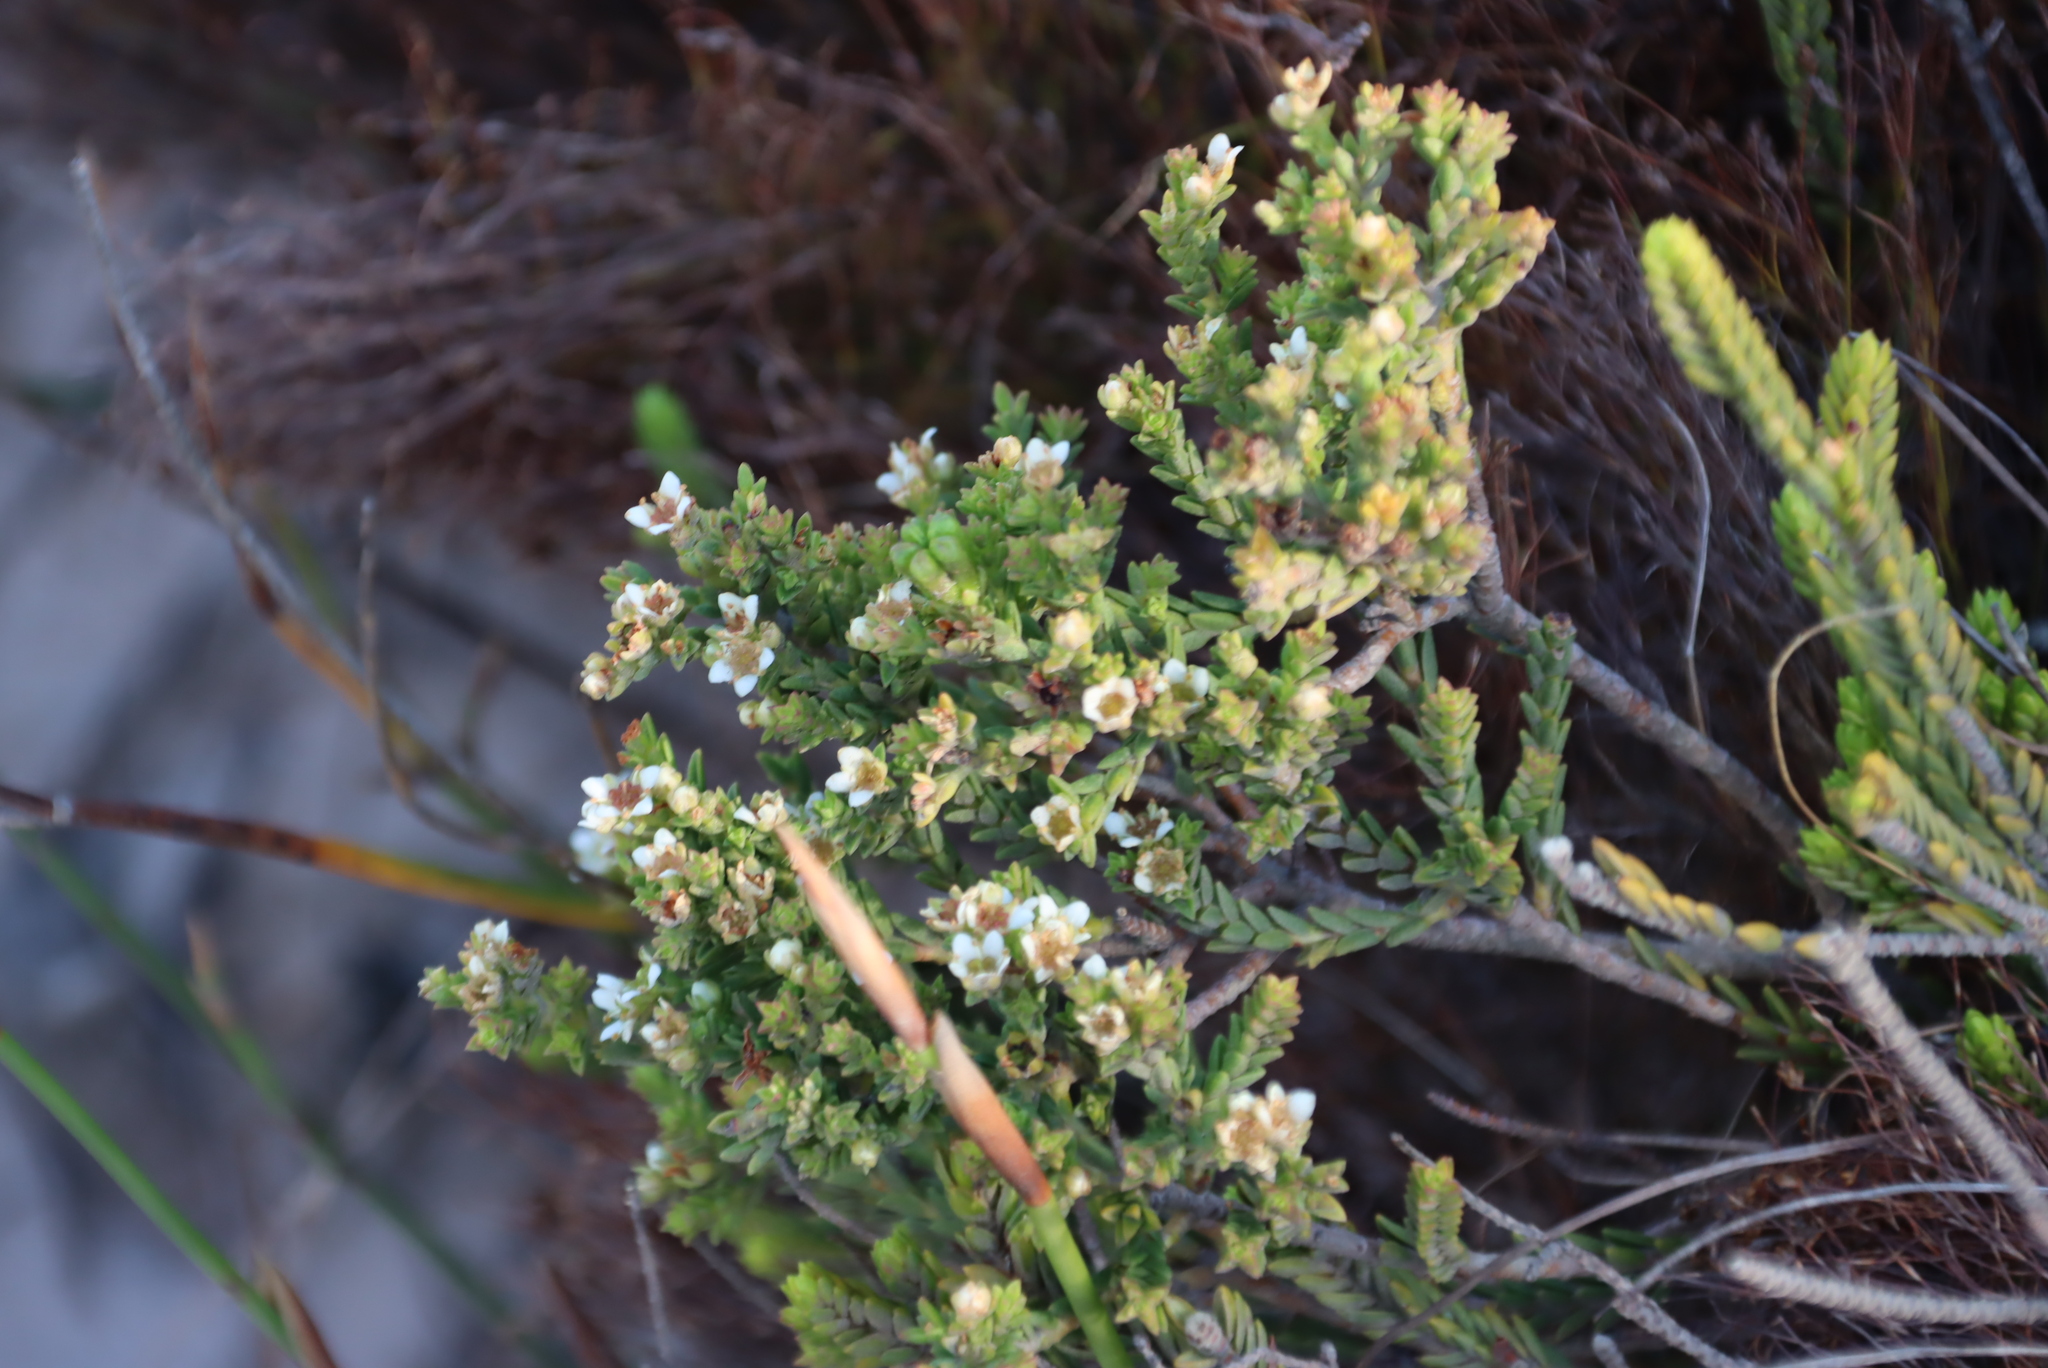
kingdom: Plantae
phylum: Tracheophyta
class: Magnoliopsida
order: Sapindales
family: Rutaceae
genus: Diosma
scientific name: Diosma oppositifolia
